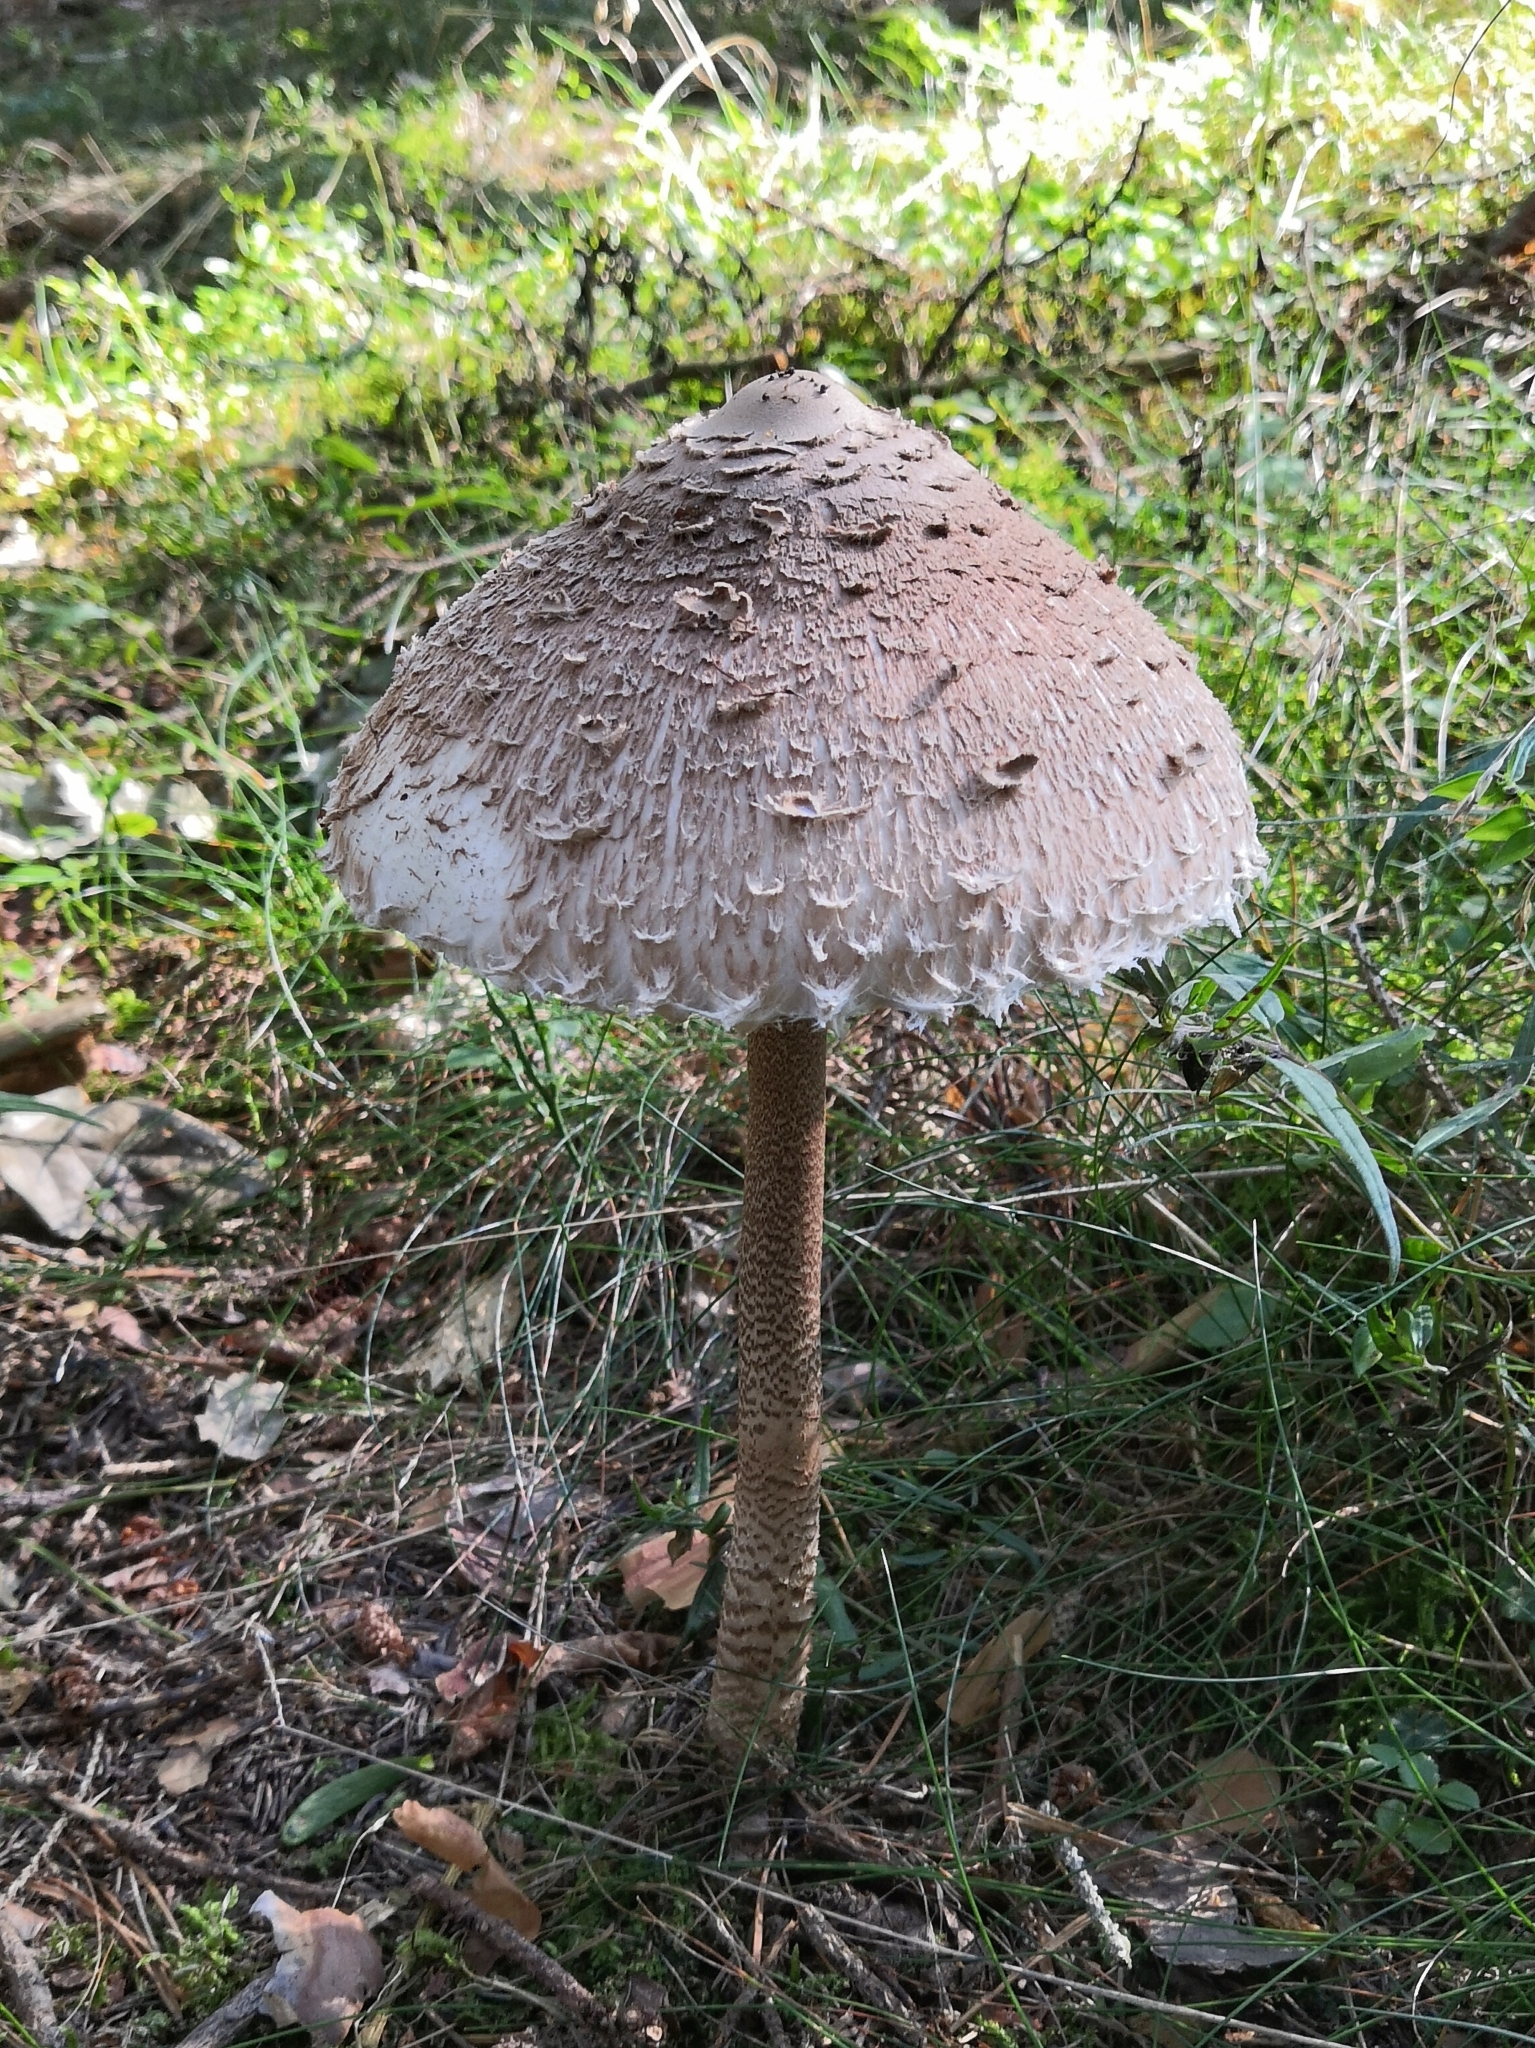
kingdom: Fungi
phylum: Basidiomycota
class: Agaricomycetes
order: Agaricales
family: Agaricaceae
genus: Macrolepiota
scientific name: Macrolepiota procera
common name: Parasol
